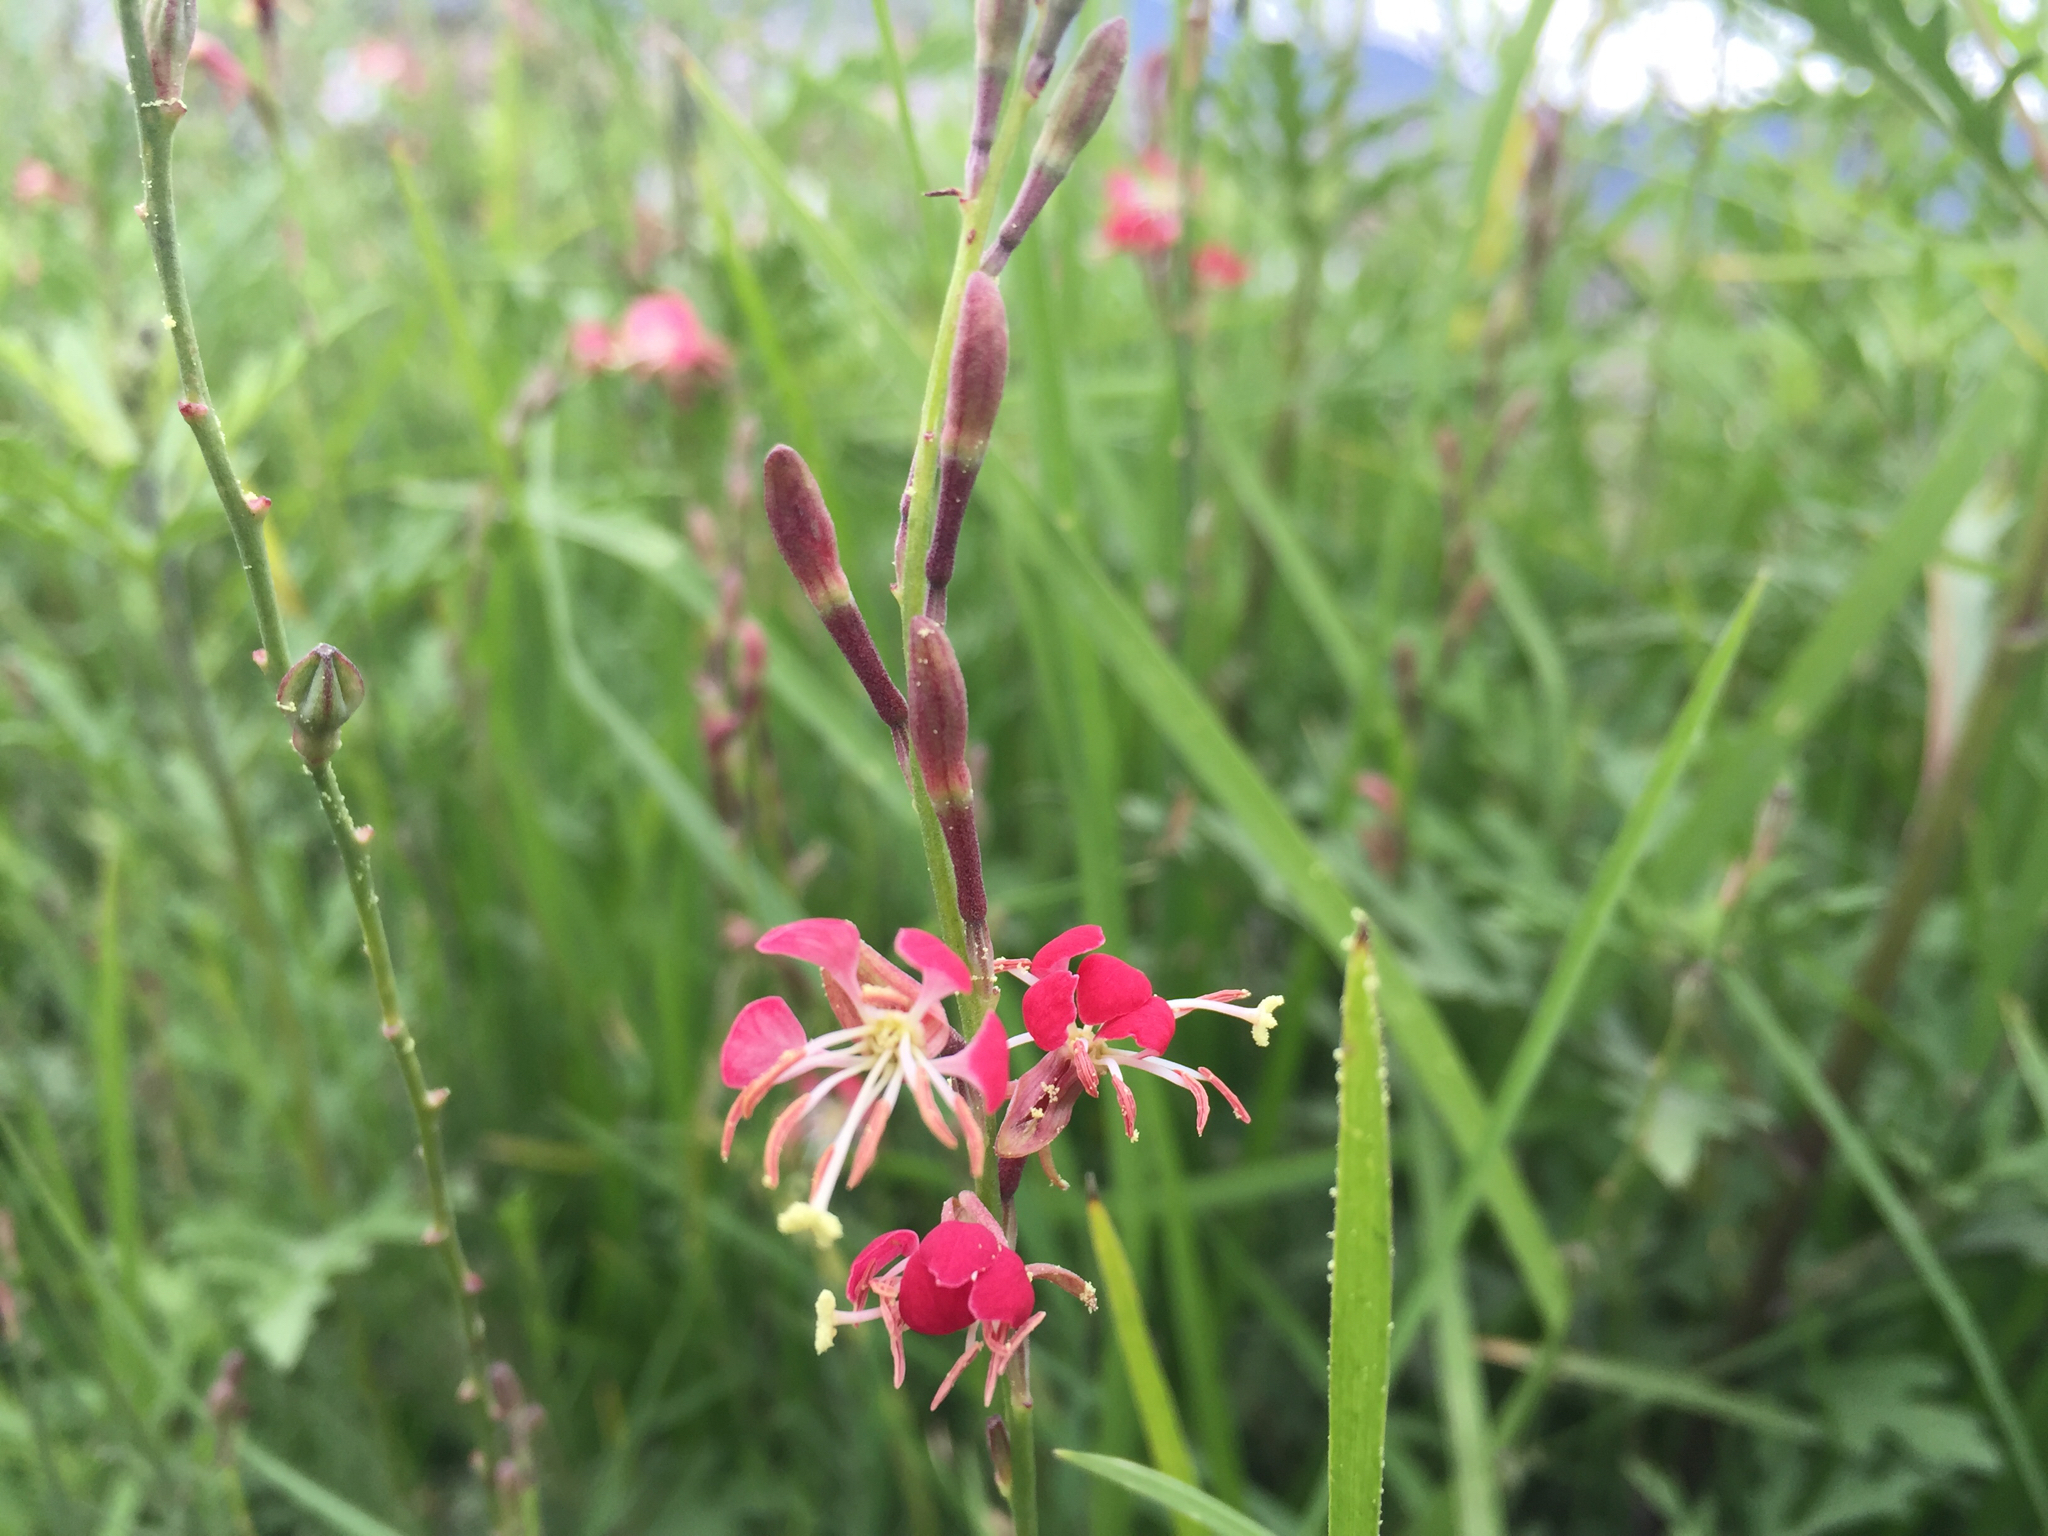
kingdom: Plantae
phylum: Tracheophyta
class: Magnoliopsida
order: Myrtales
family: Onagraceae
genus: Oenothera
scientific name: Oenothera suffrutescens
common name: Scarlet beeblossom
